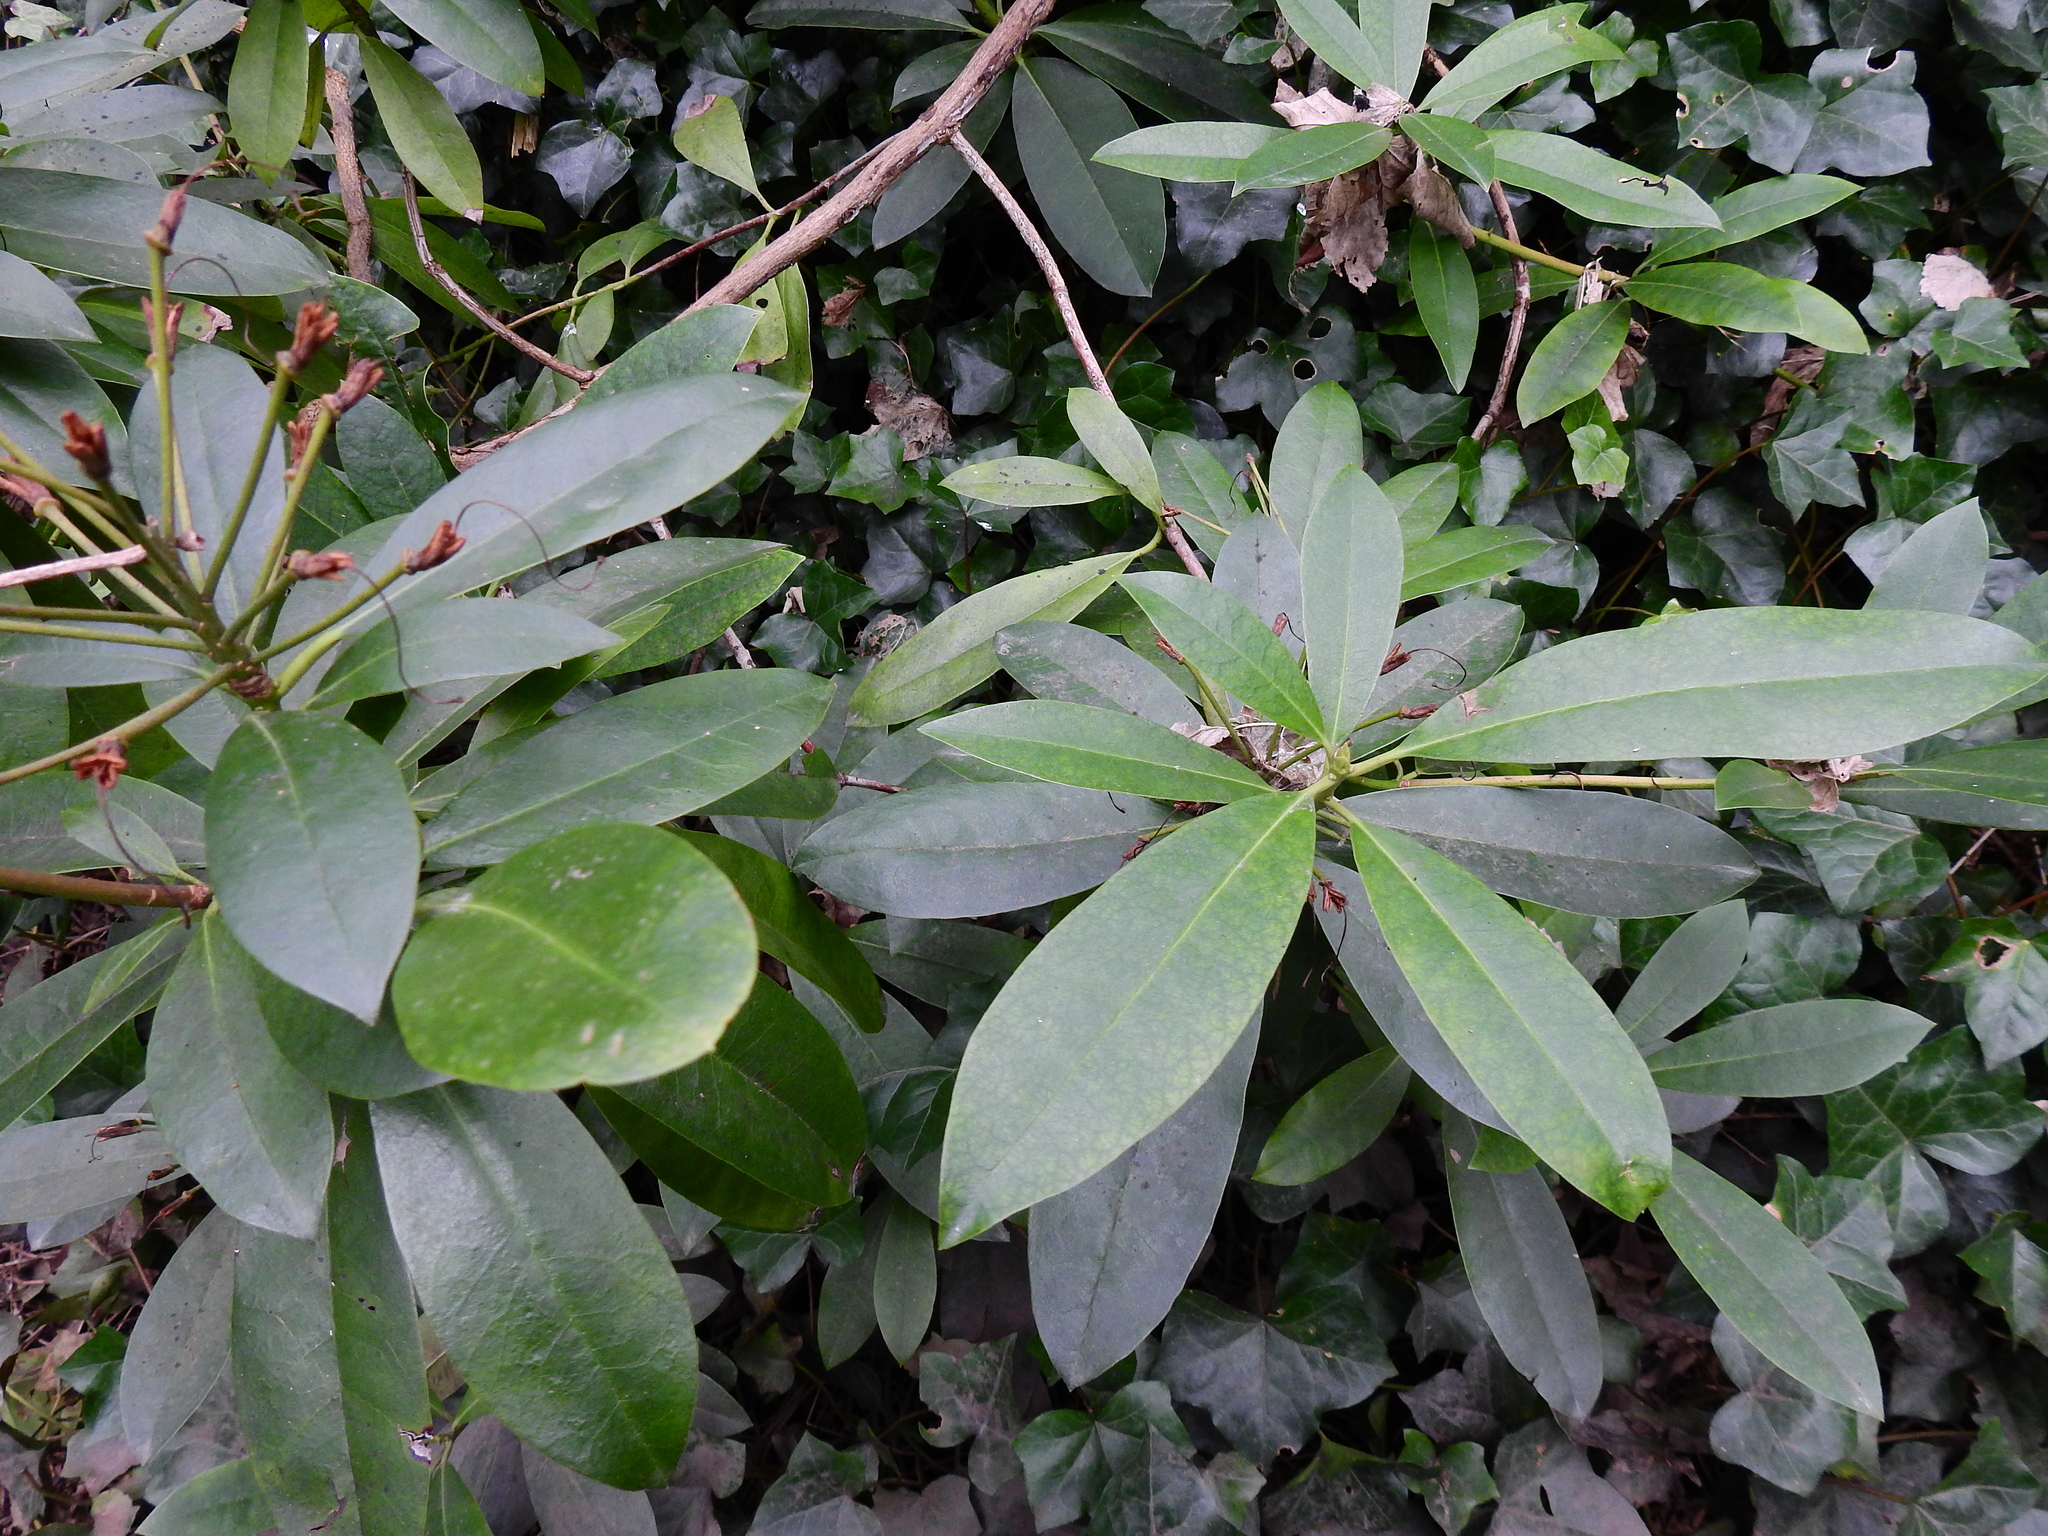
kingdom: Plantae
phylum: Tracheophyta
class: Magnoliopsida
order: Ericales
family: Ericaceae
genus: Rhododendron
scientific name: Rhododendron ponticum
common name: Rhododendron
